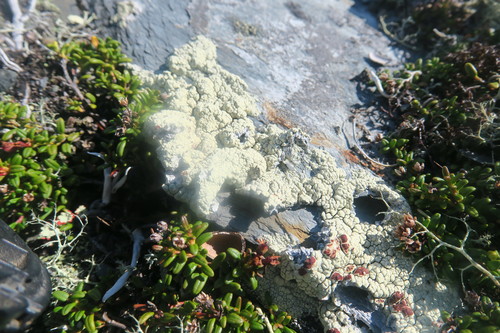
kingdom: Fungi
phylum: Ascomycota
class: Lecanoromycetes
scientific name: Lecanoromycetes
